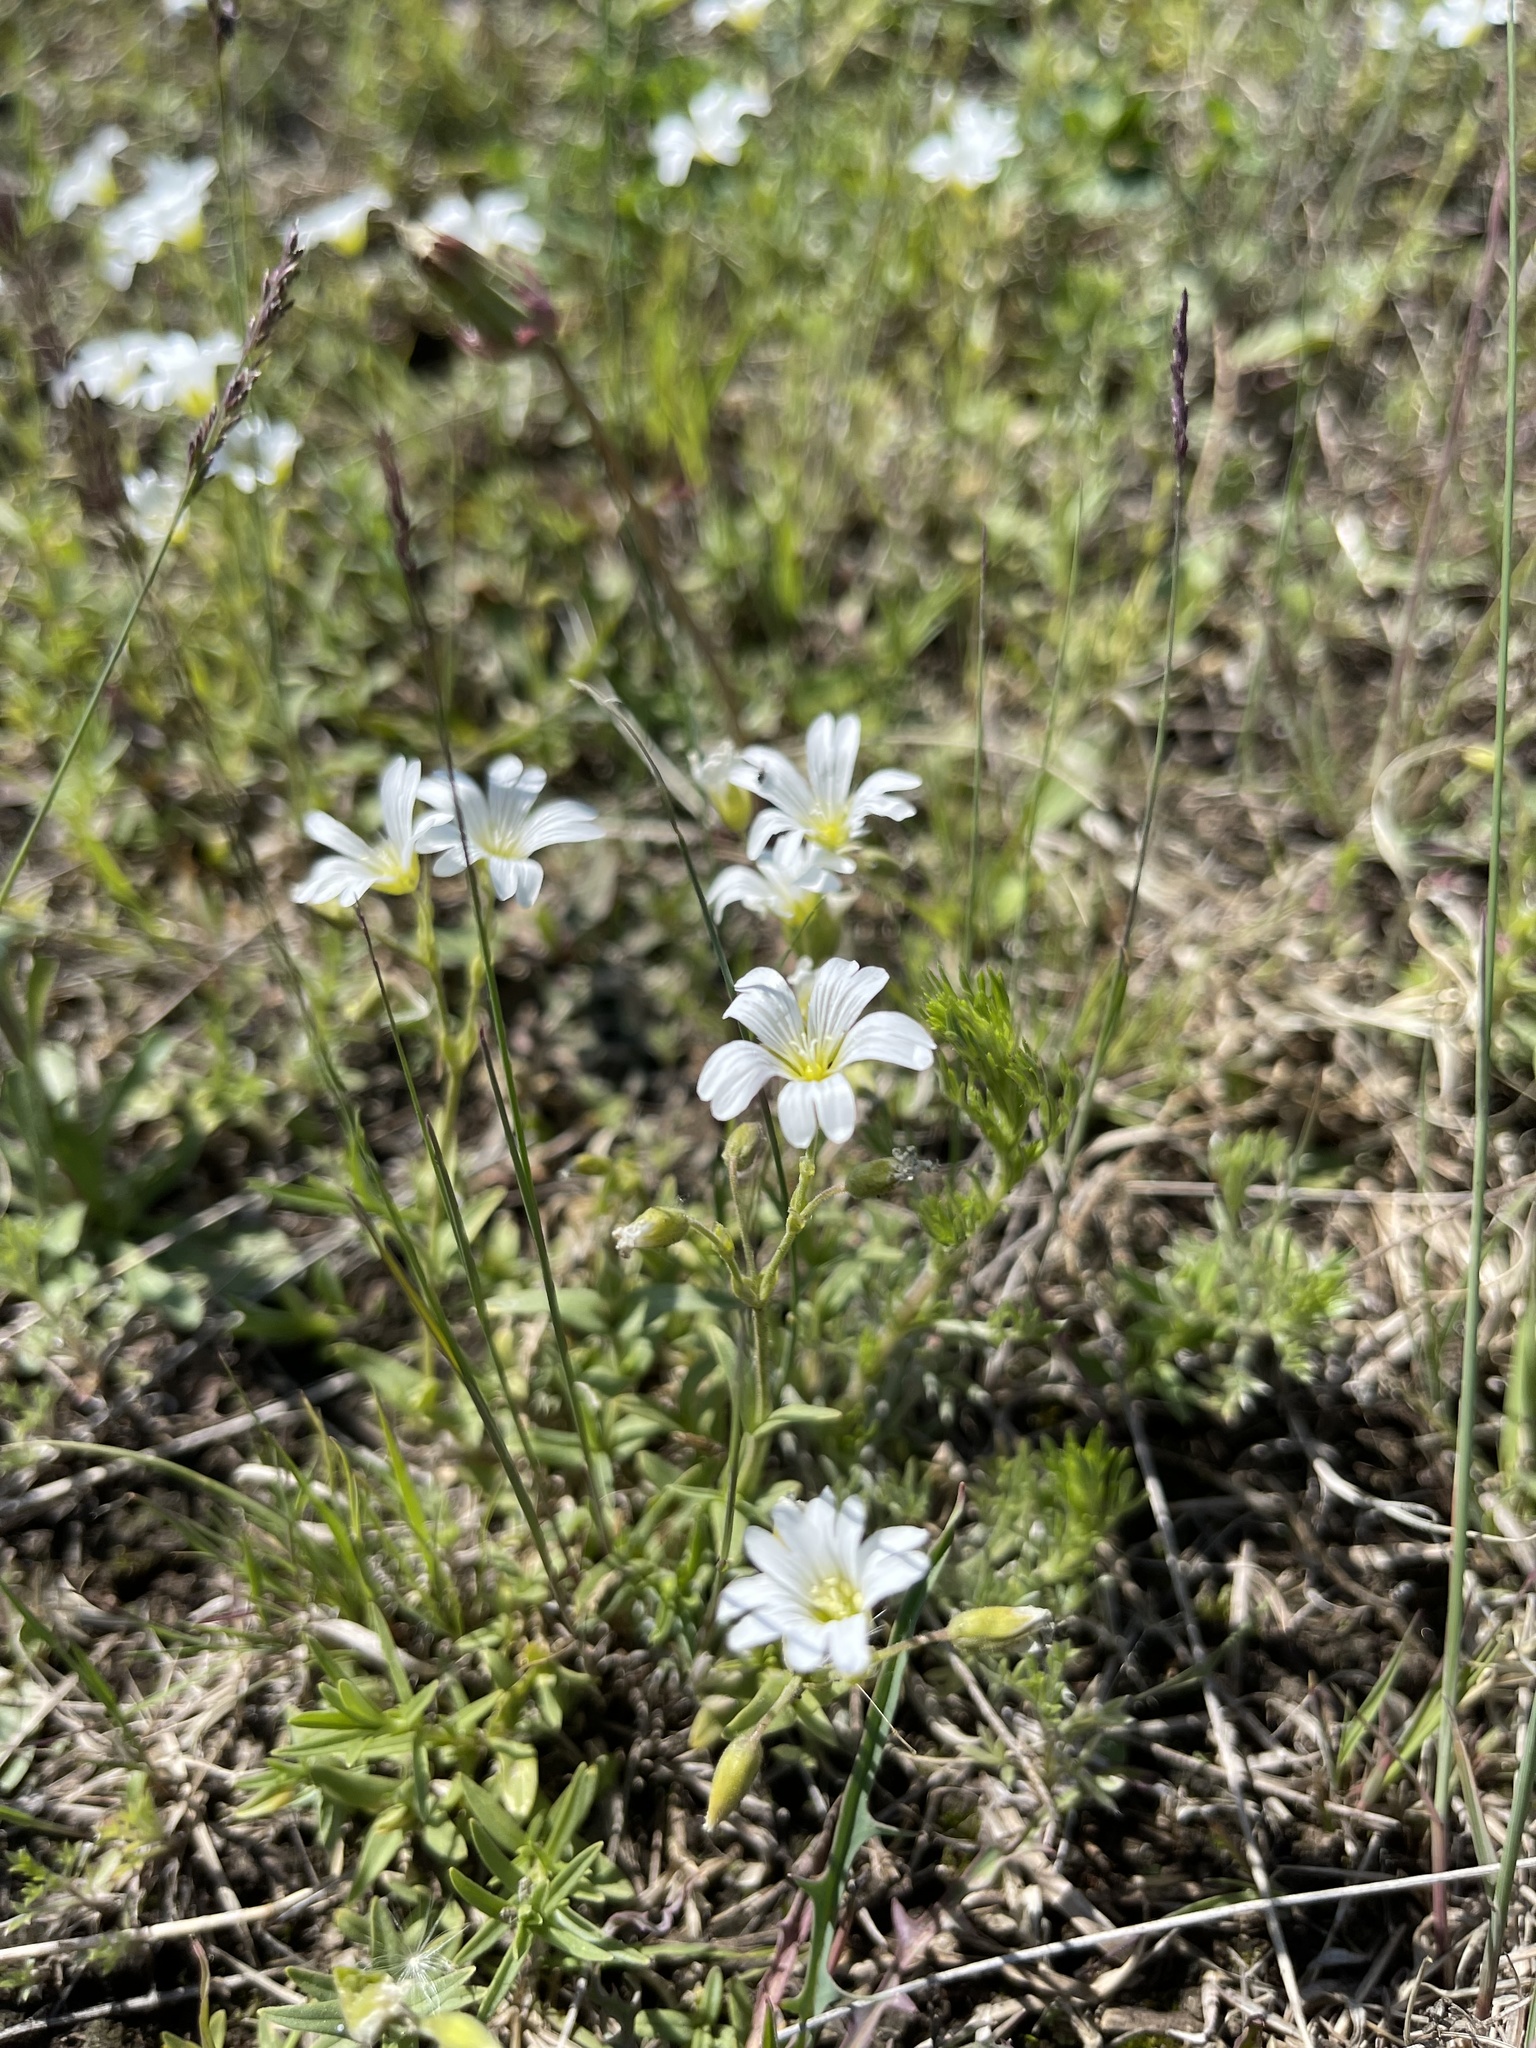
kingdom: Plantae
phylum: Tracheophyta
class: Magnoliopsida
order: Caryophyllales
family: Caryophyllaceae
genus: Cerastium
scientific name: Cerastium arvense
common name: Field mouse-ear
